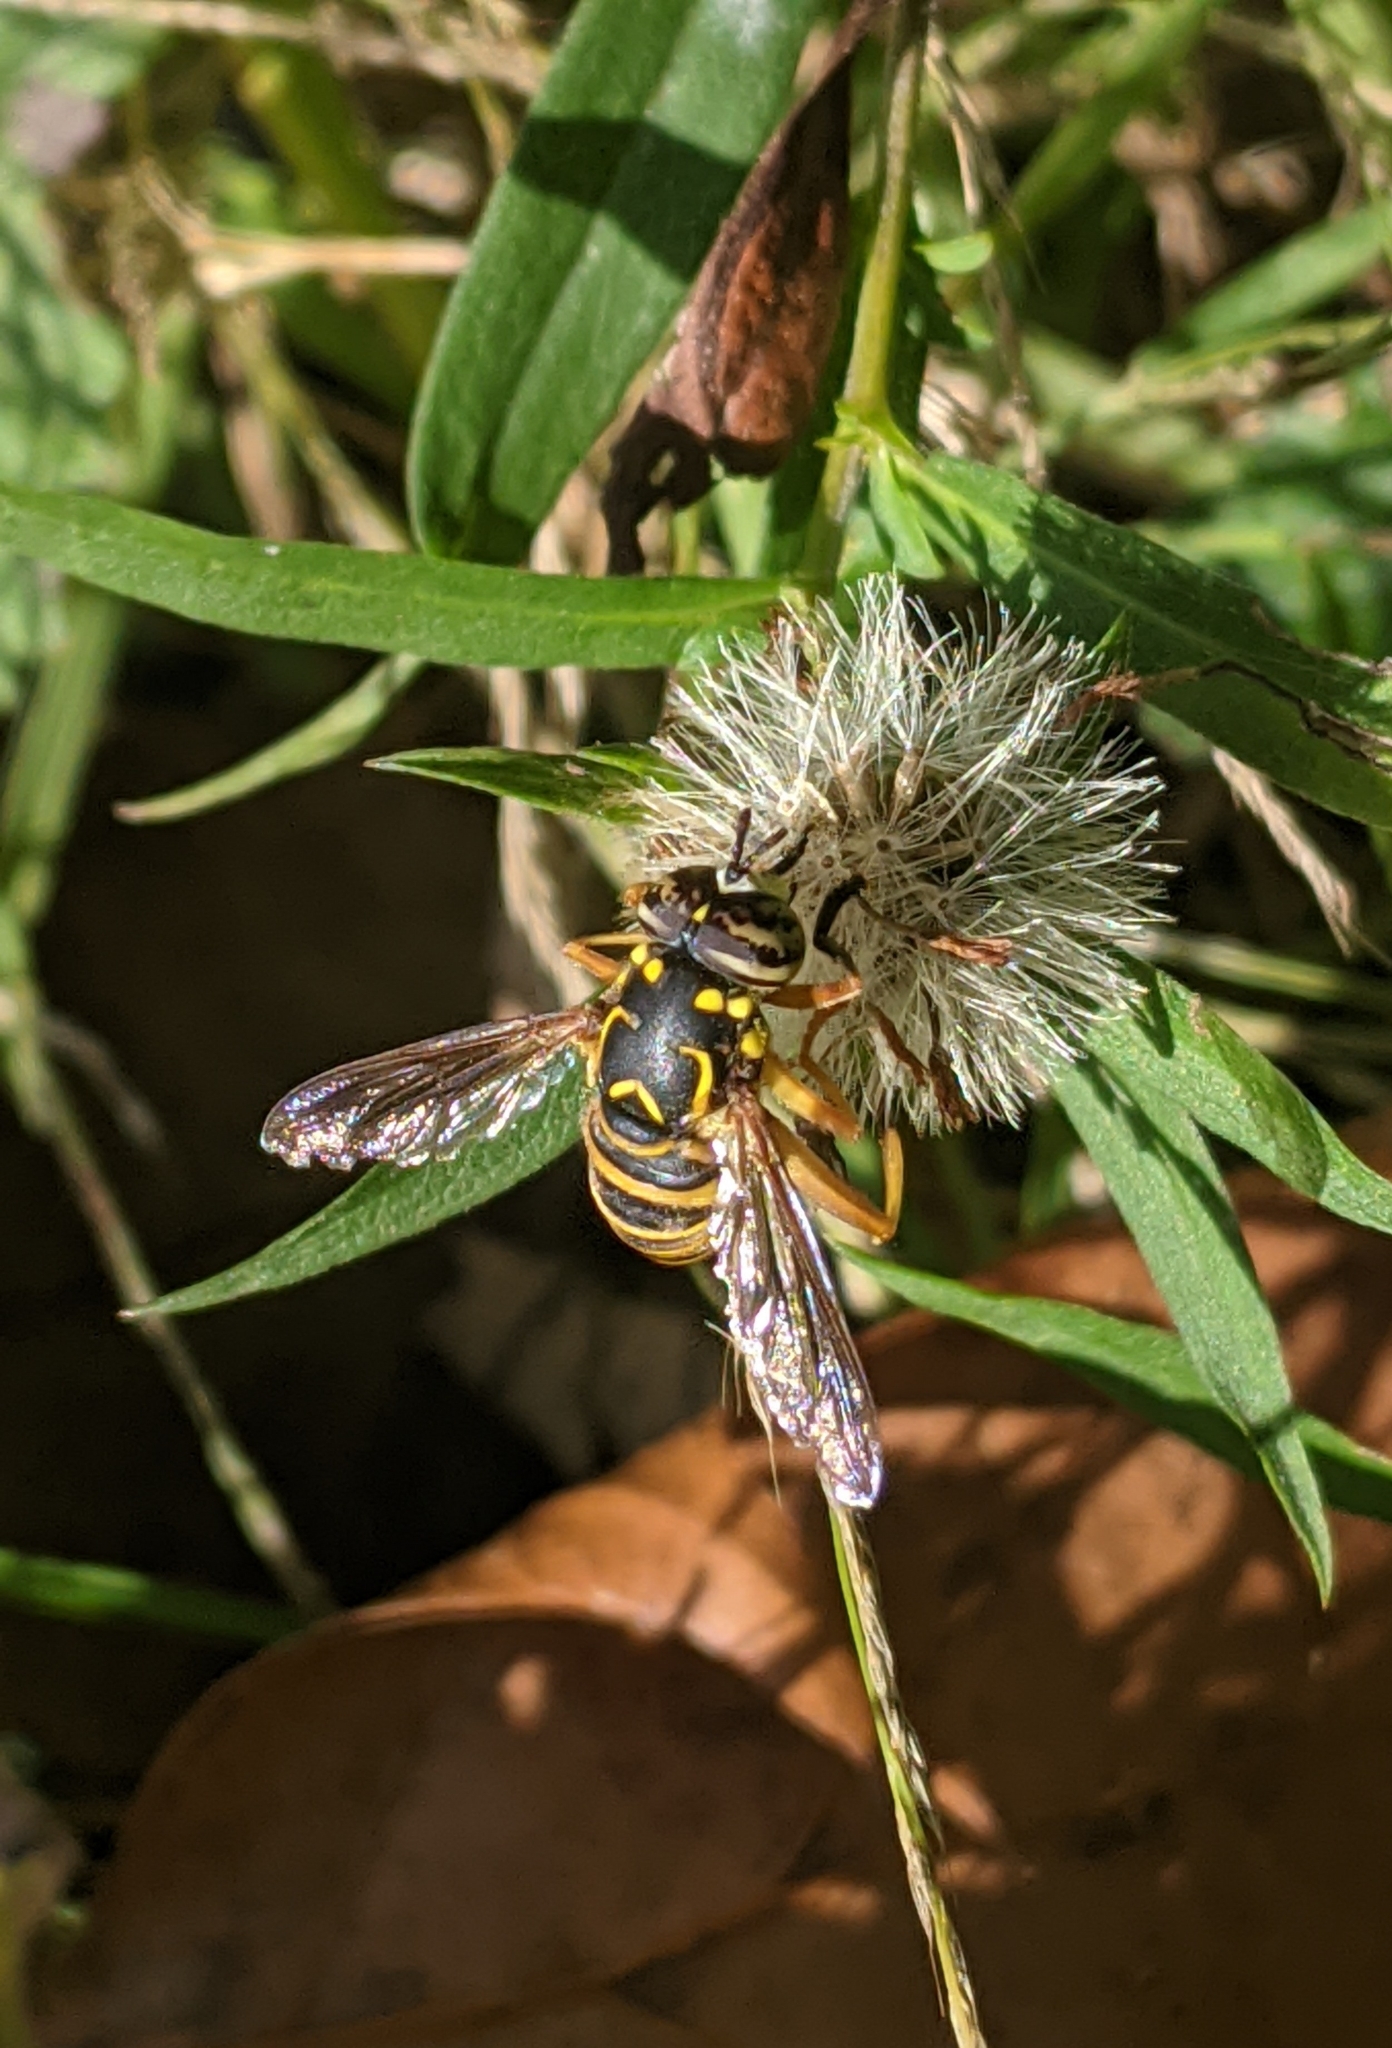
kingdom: Animalia
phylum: Arthropoda
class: Insecta
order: Diptera
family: Syrphidae
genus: Spilomyia
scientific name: Spilomyia longicornis
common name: Eastern hornet fly
